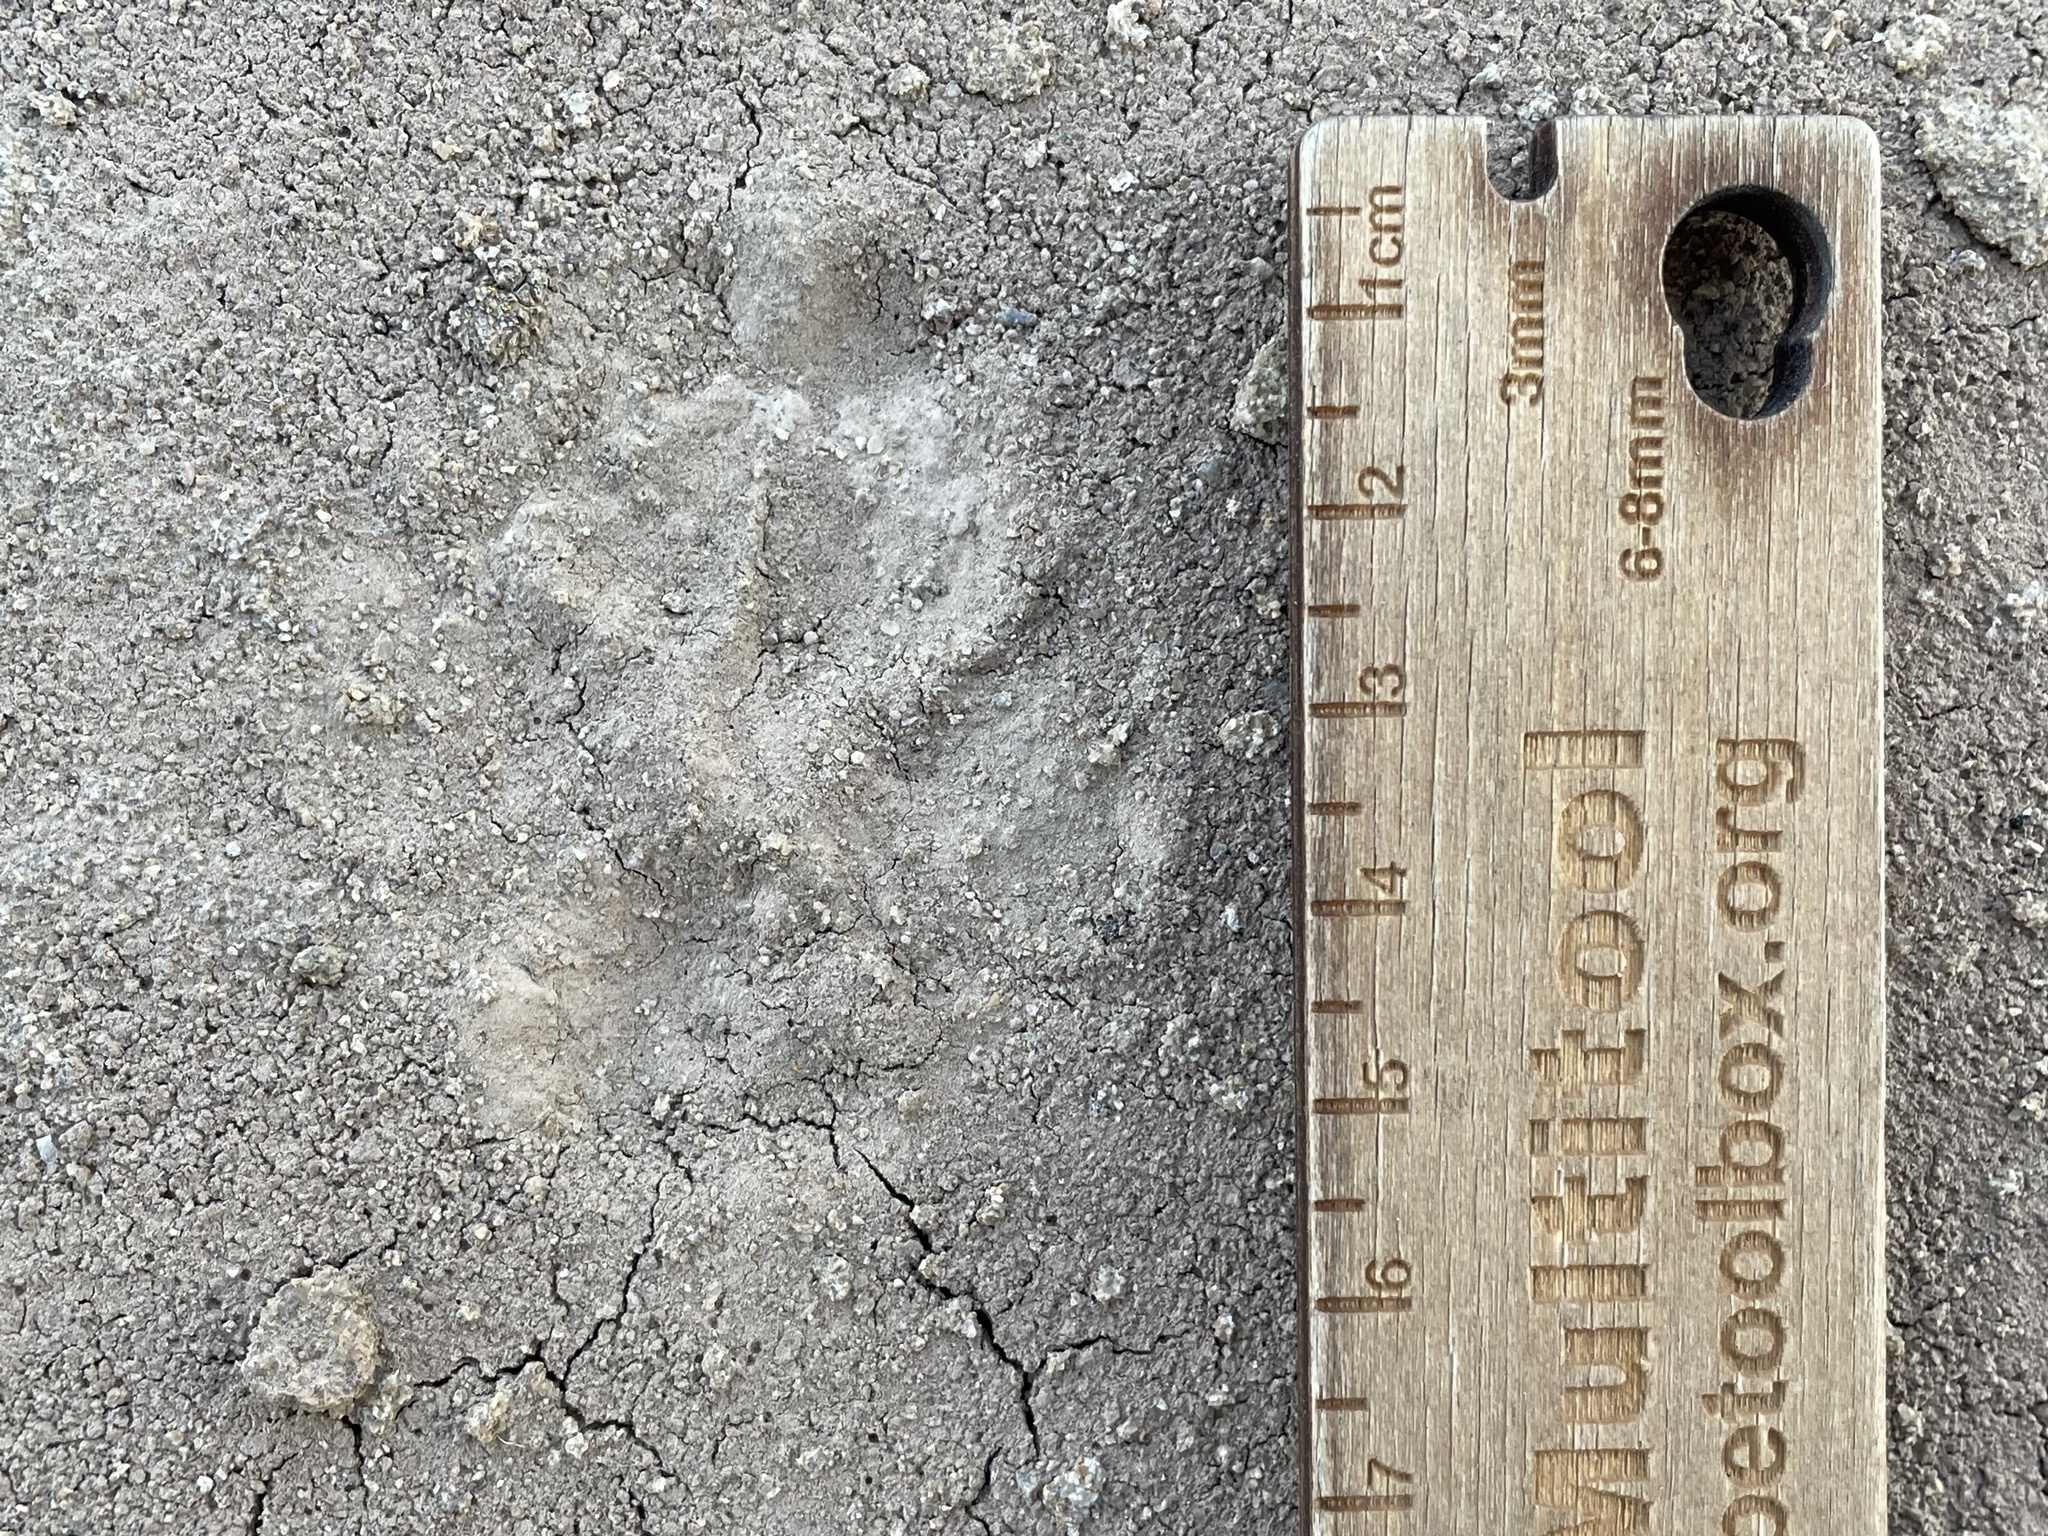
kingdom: Animalia
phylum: Chordata
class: Mammalia
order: Carnivora
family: Canidae
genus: Vulpes
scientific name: Vulpes vulpes
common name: Red fox
